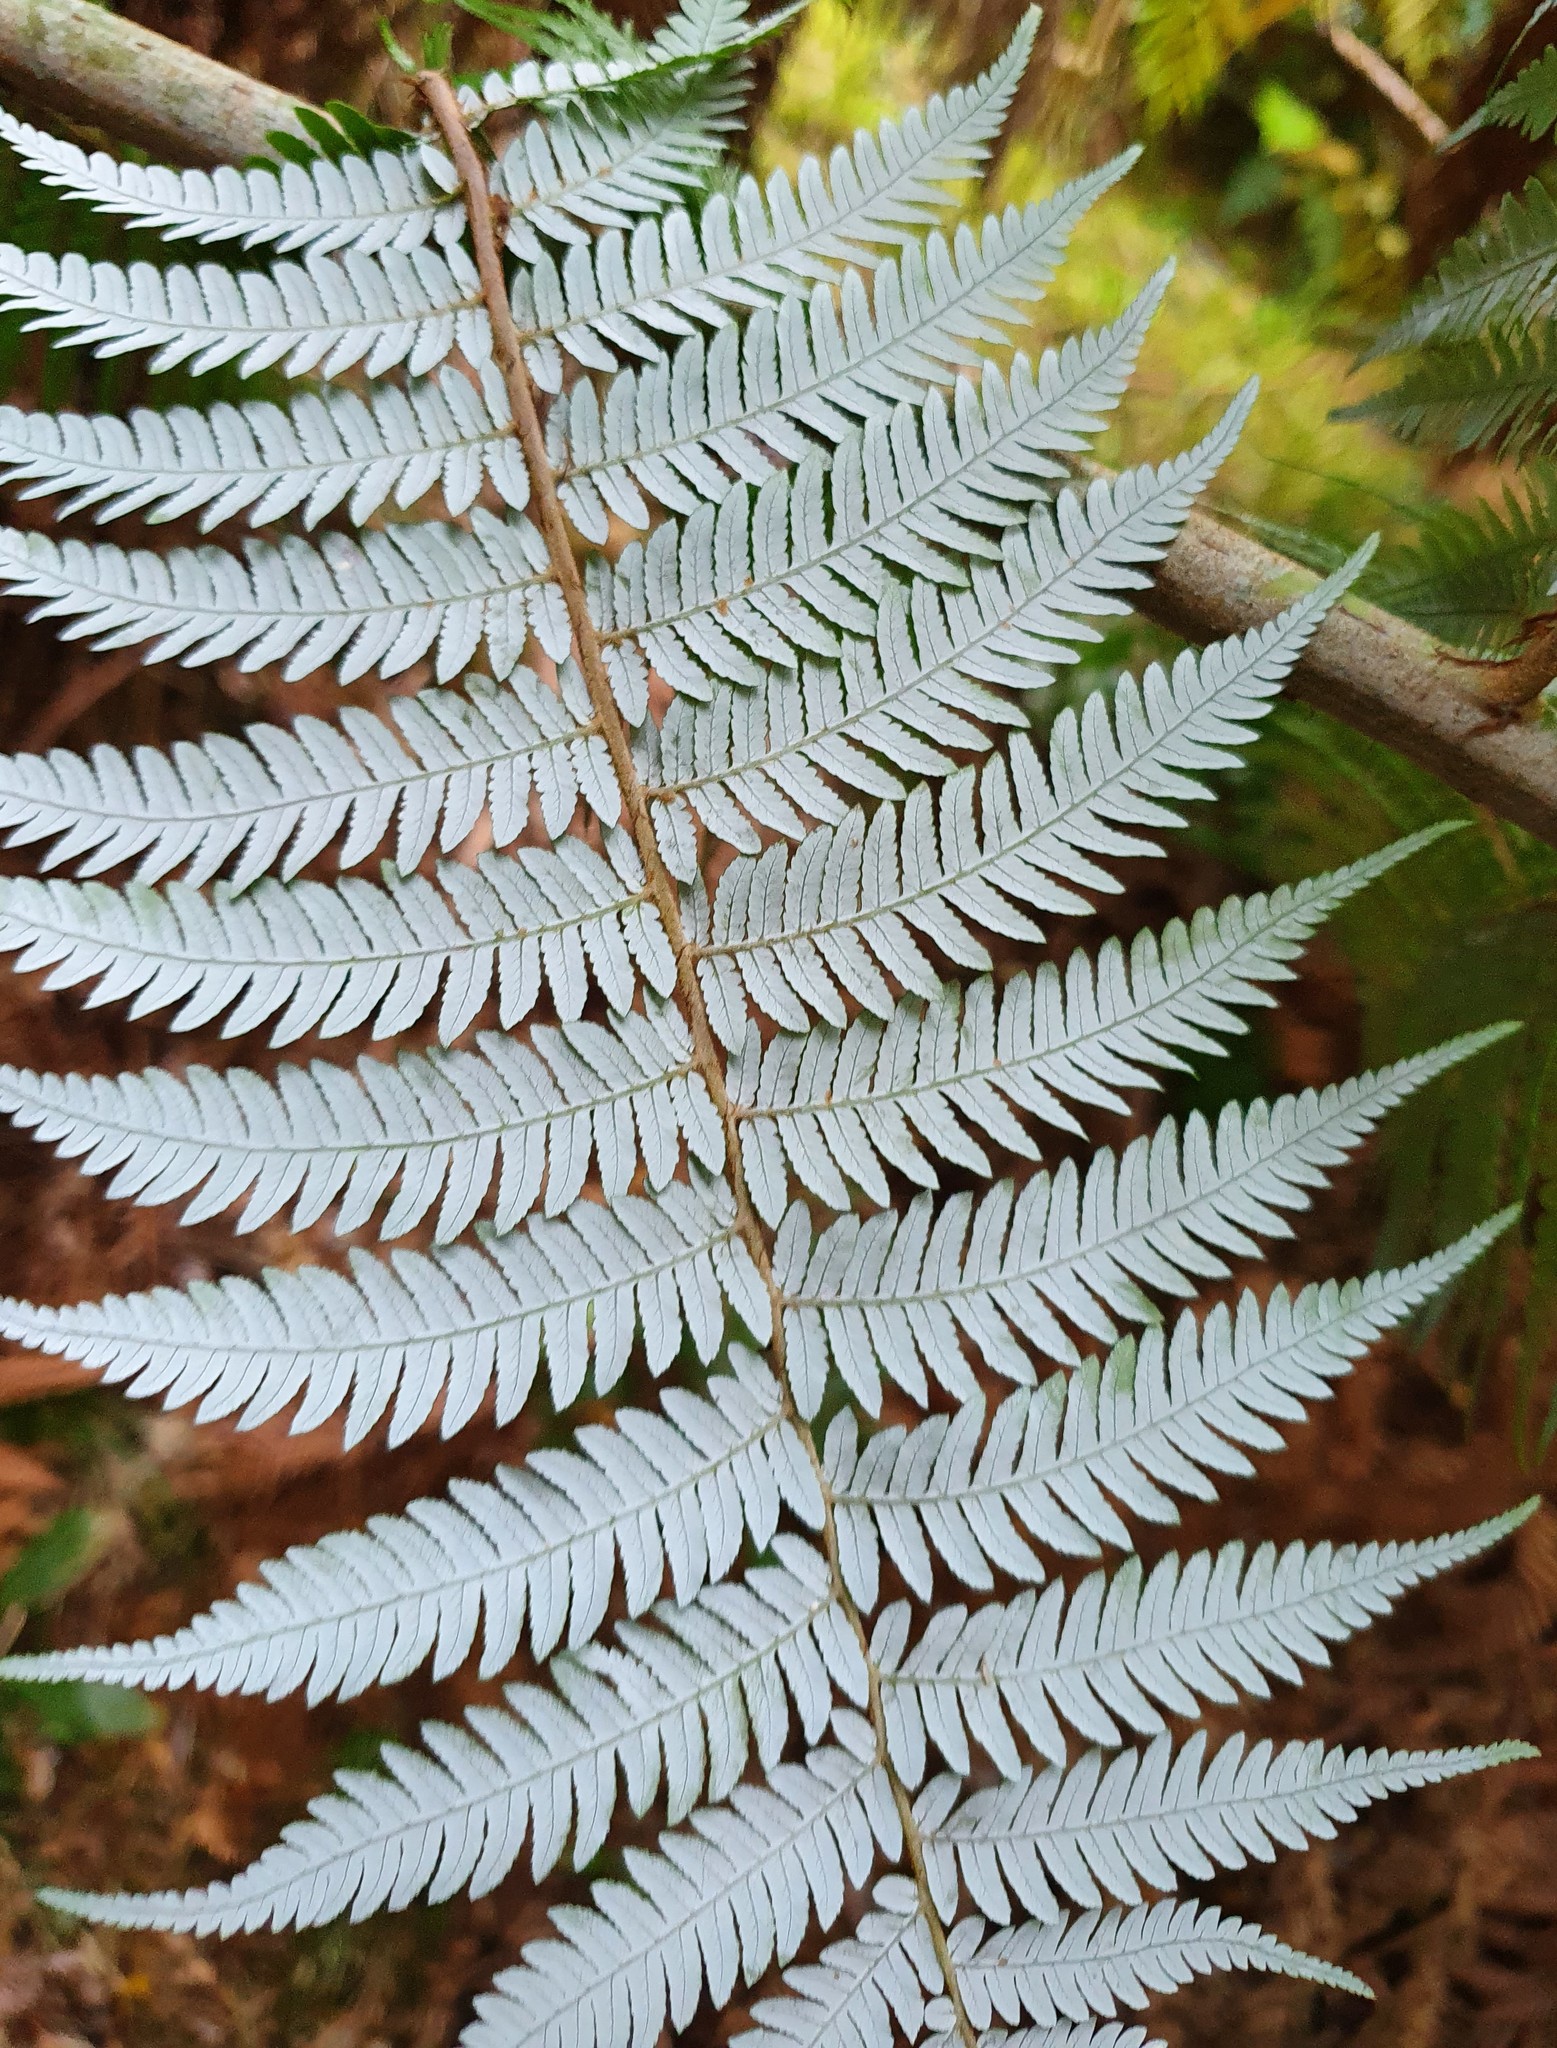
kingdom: Plantae
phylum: Tracheophyta
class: Polypodiopsida
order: Cyatheales
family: Cyatheaceae
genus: Alsophila
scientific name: Alsophila dealbata
